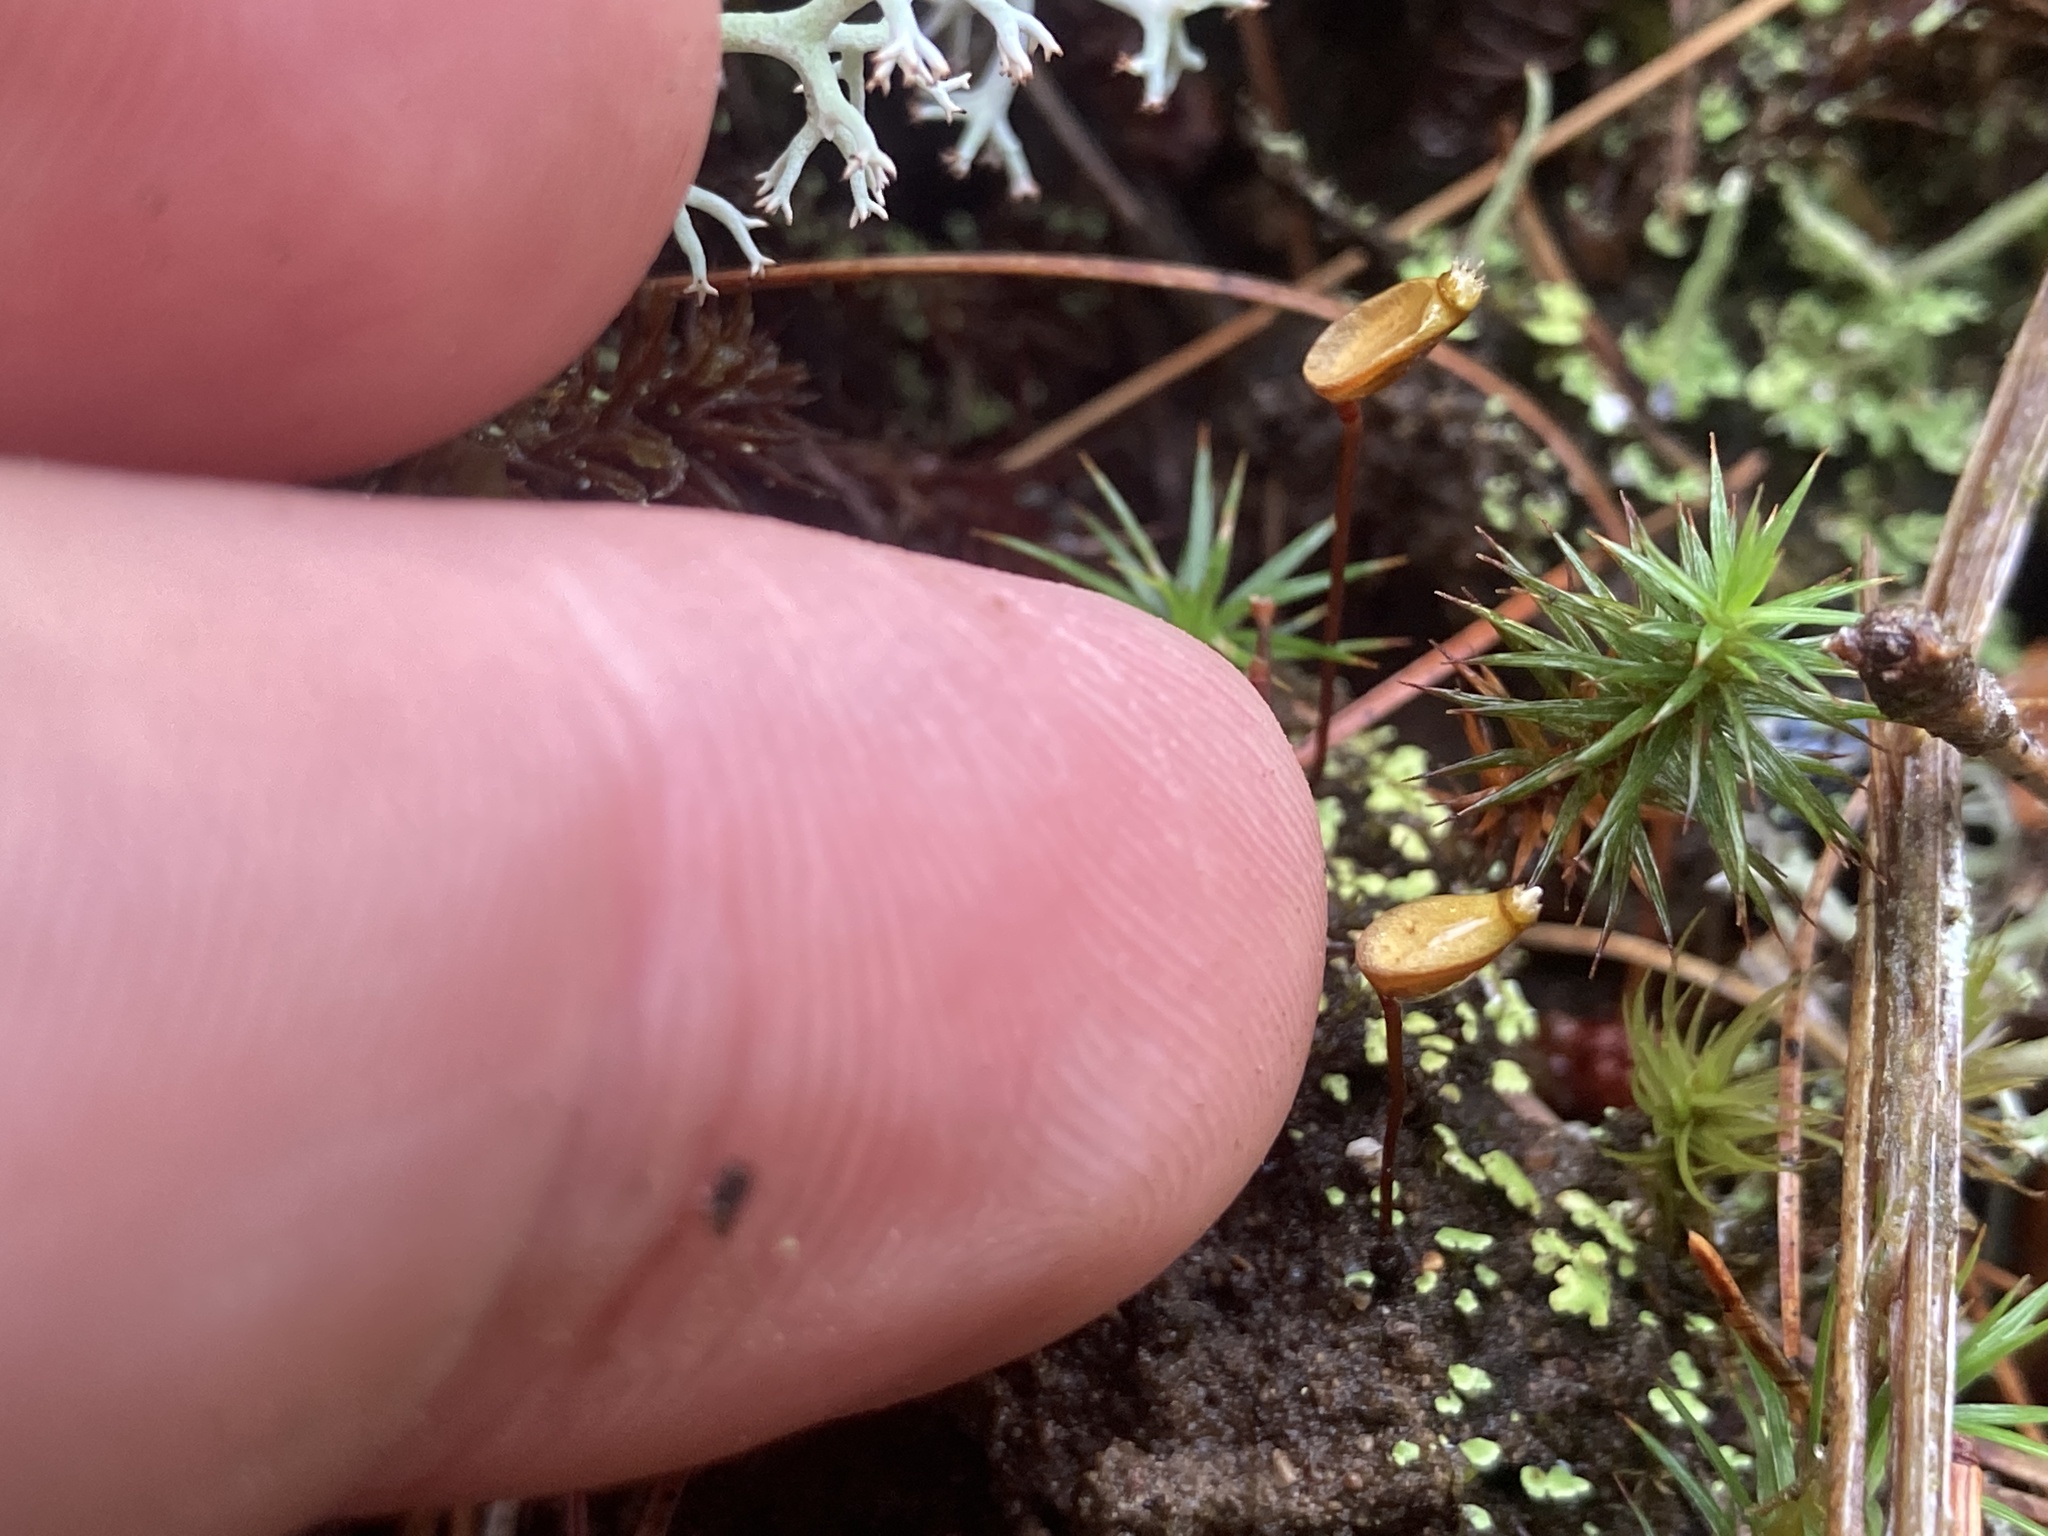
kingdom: Plantae
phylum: Bryophyta
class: Bryopsida
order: Buxbaumiales
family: Buxbaumiaceae
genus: Buxbaumia
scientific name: Buxbaumia aphylla
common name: Brown shield-moss
